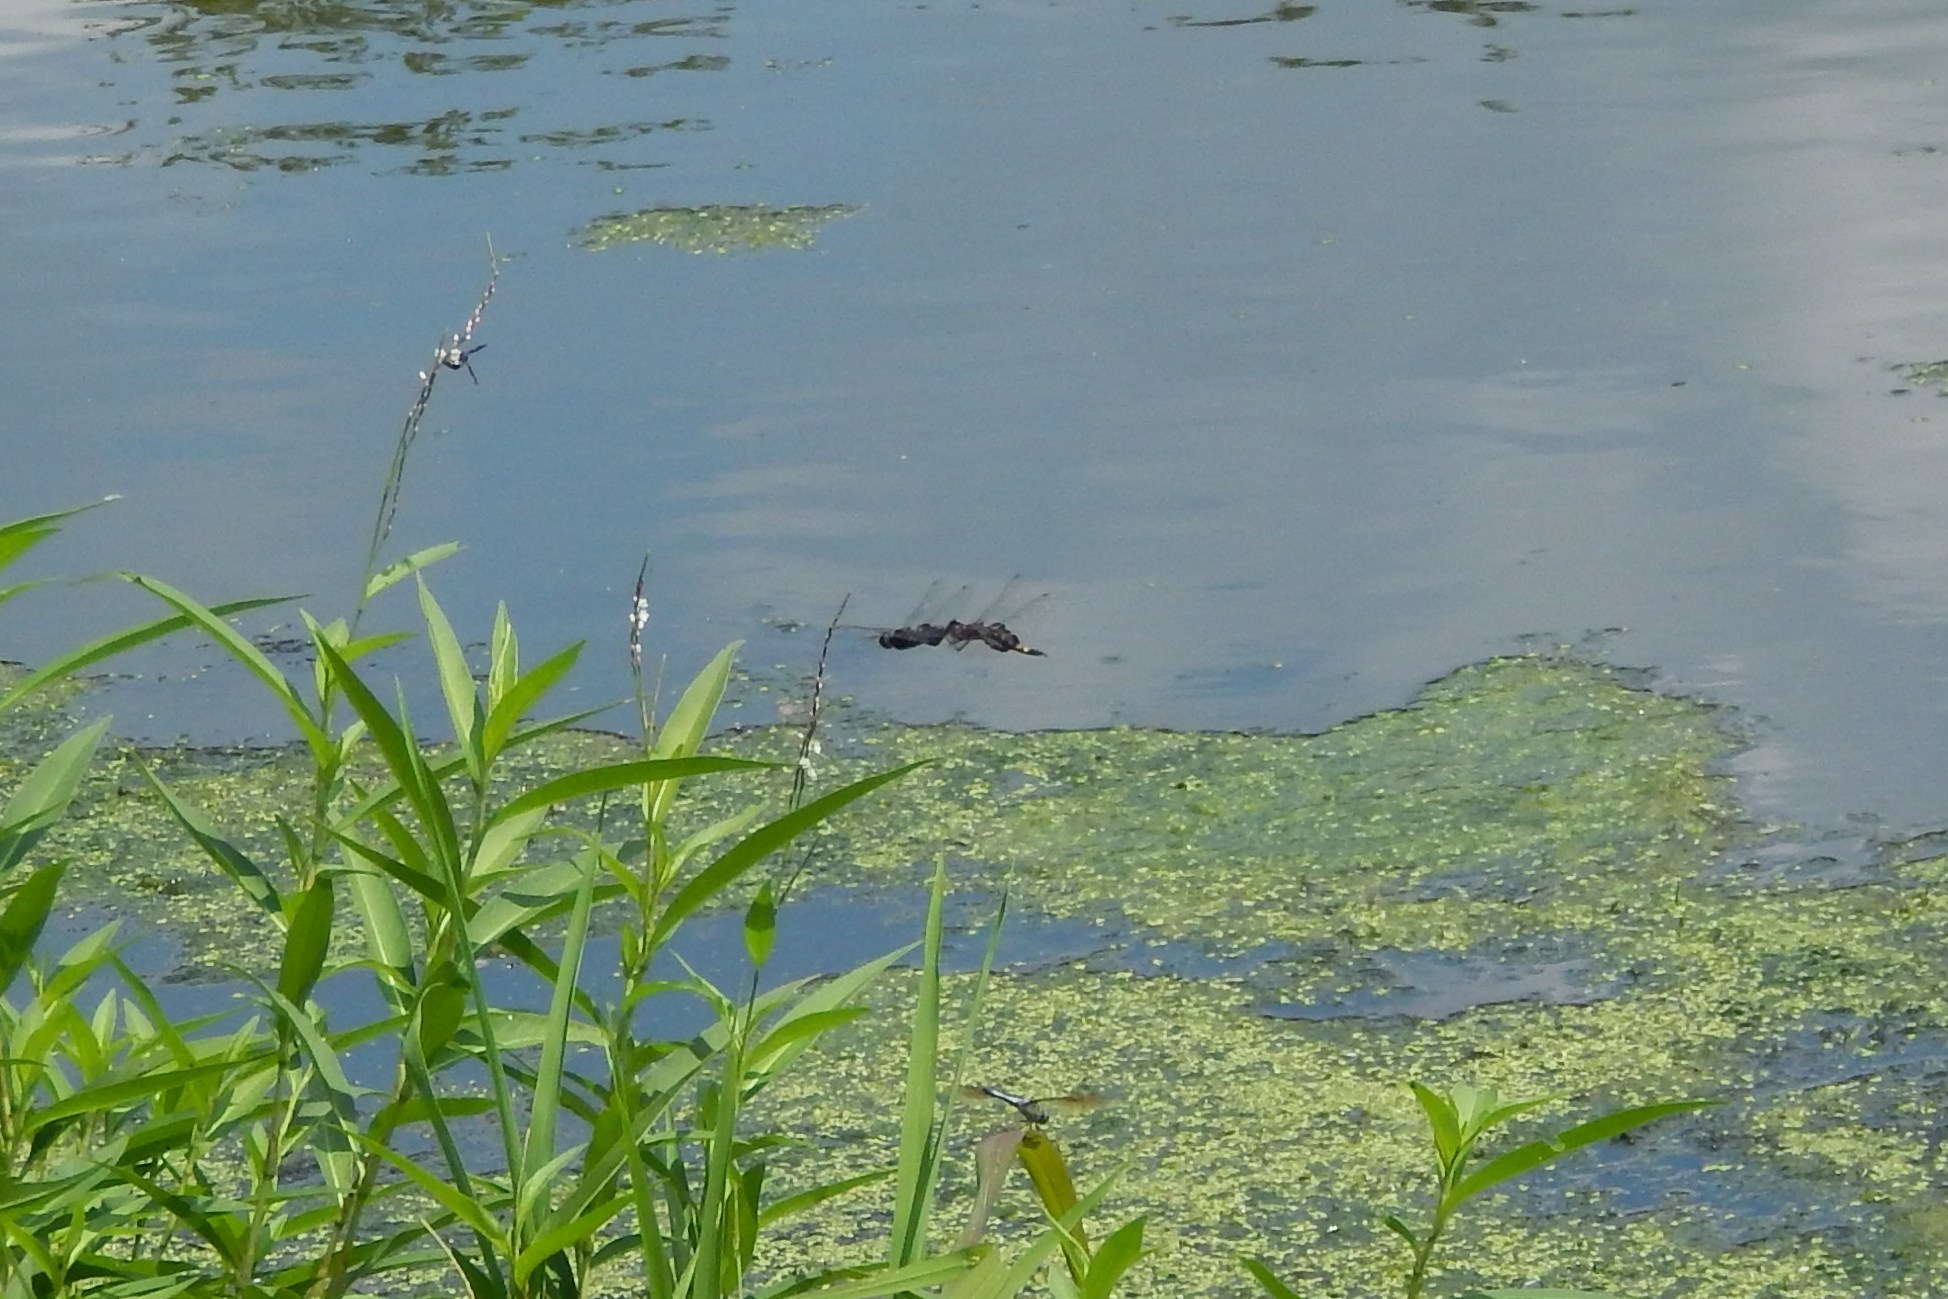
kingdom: Animalia
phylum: Arthropoda
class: Insecta
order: Odonata
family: Libellulidae
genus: Tramea
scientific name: Tramea lacerata
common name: Black saddlebags
